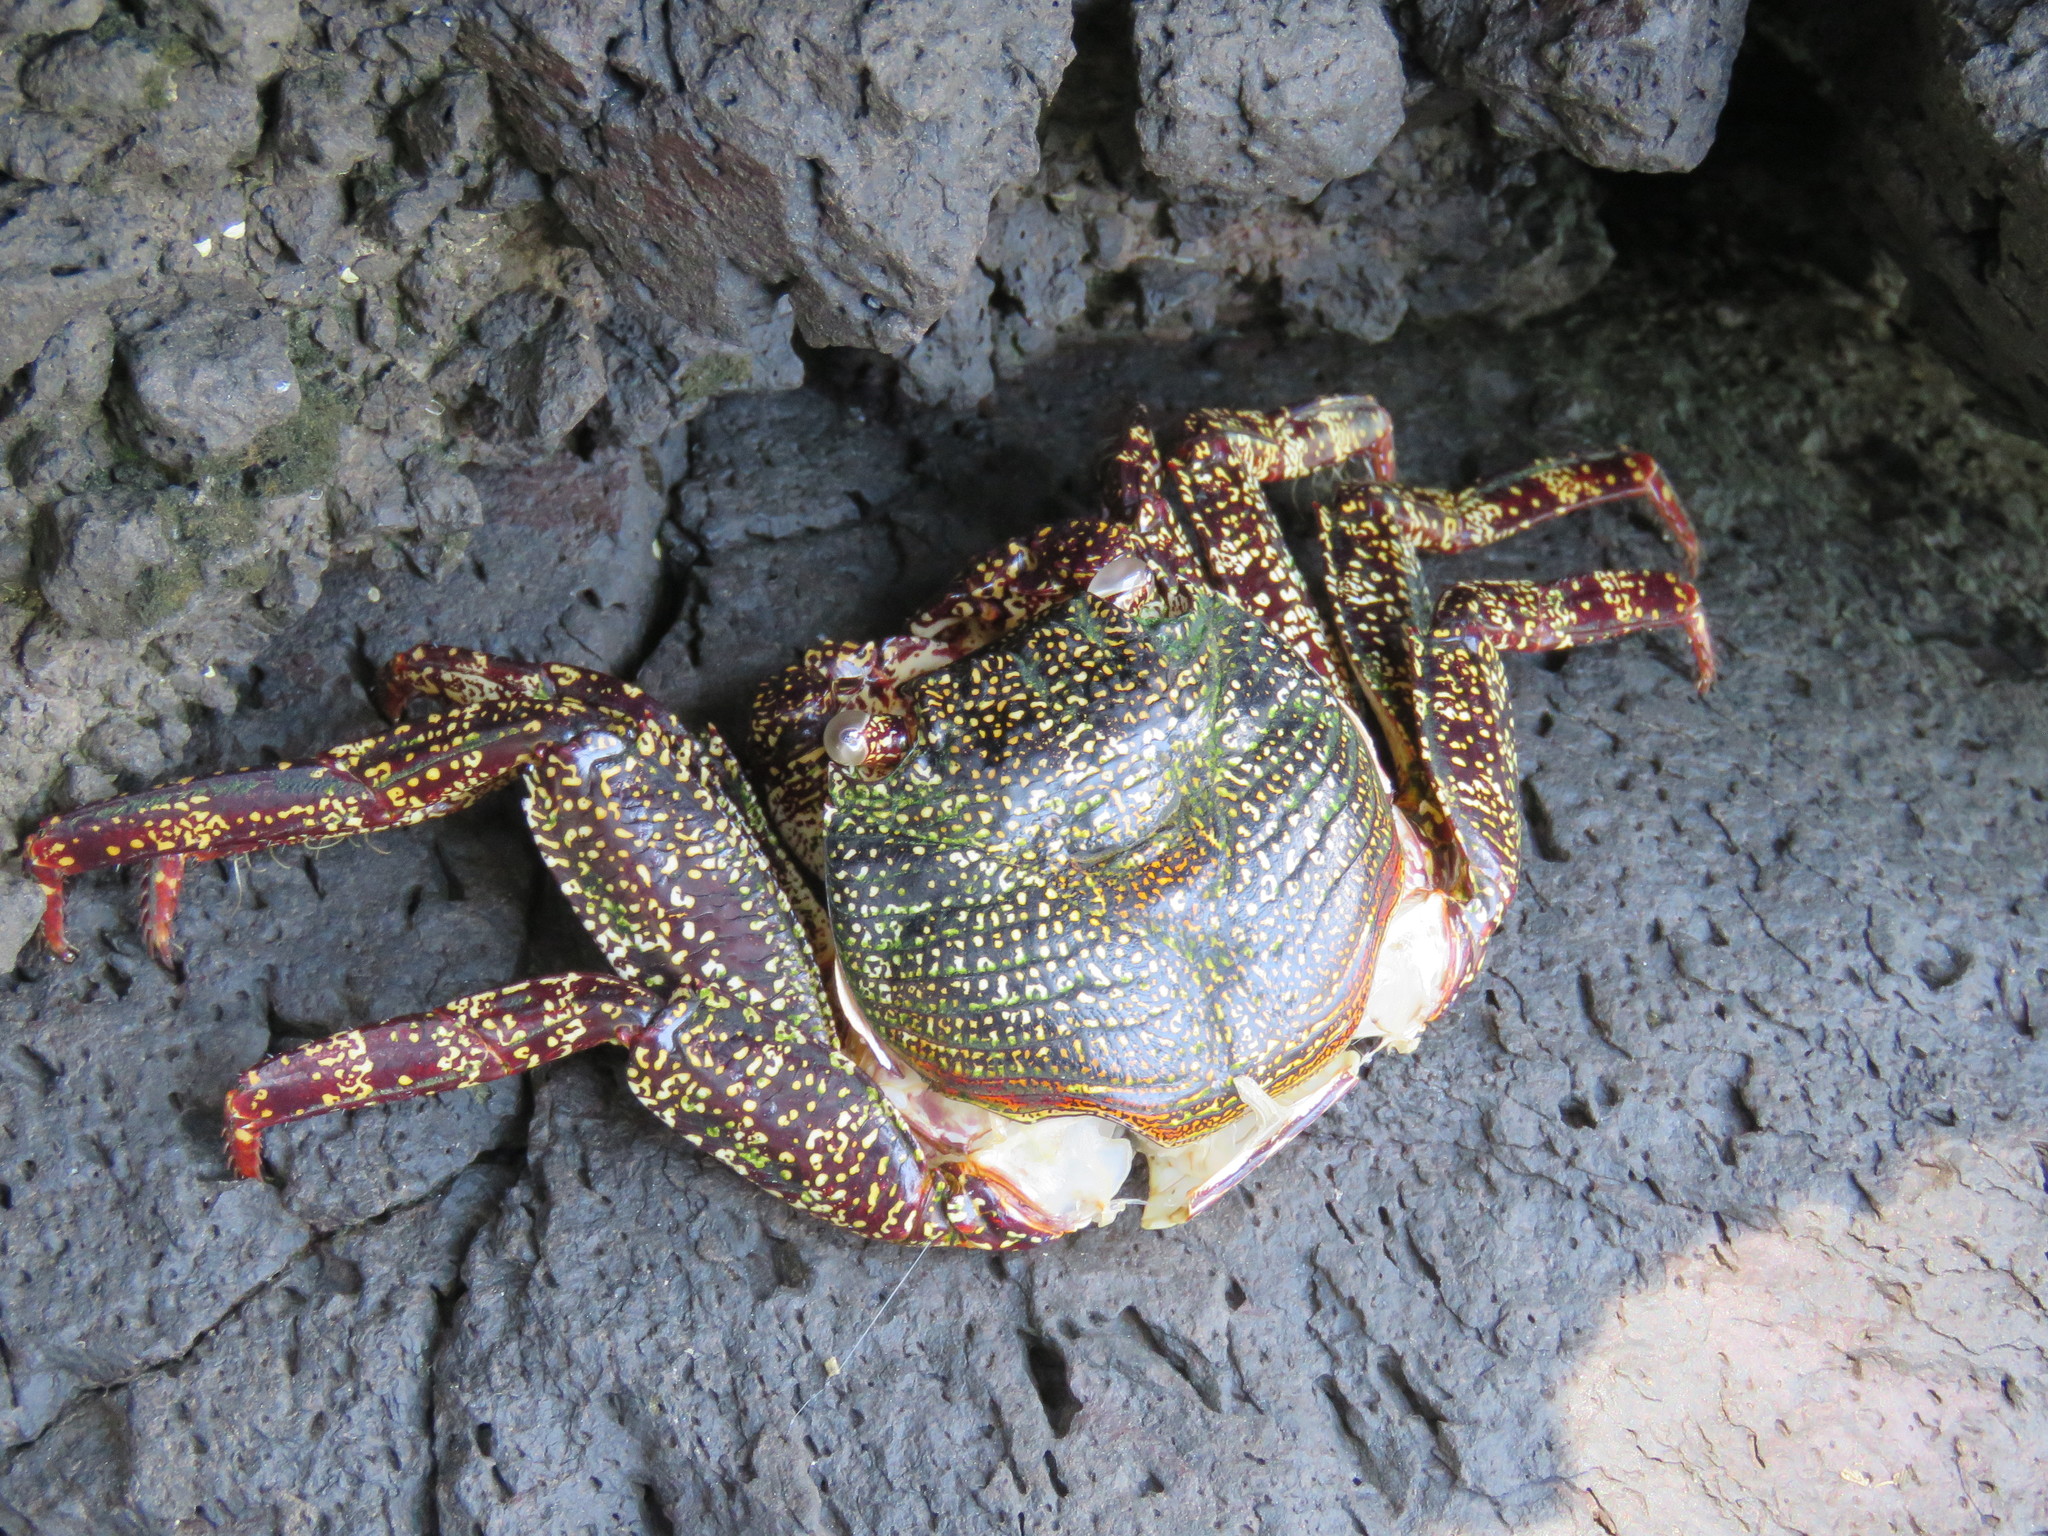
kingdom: Animalia
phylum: Arthropoda
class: Malacostraca
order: Decapoda
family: Grapsidae
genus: Grapsus
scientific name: Grapsus grapsus
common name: Sally lightfoot
